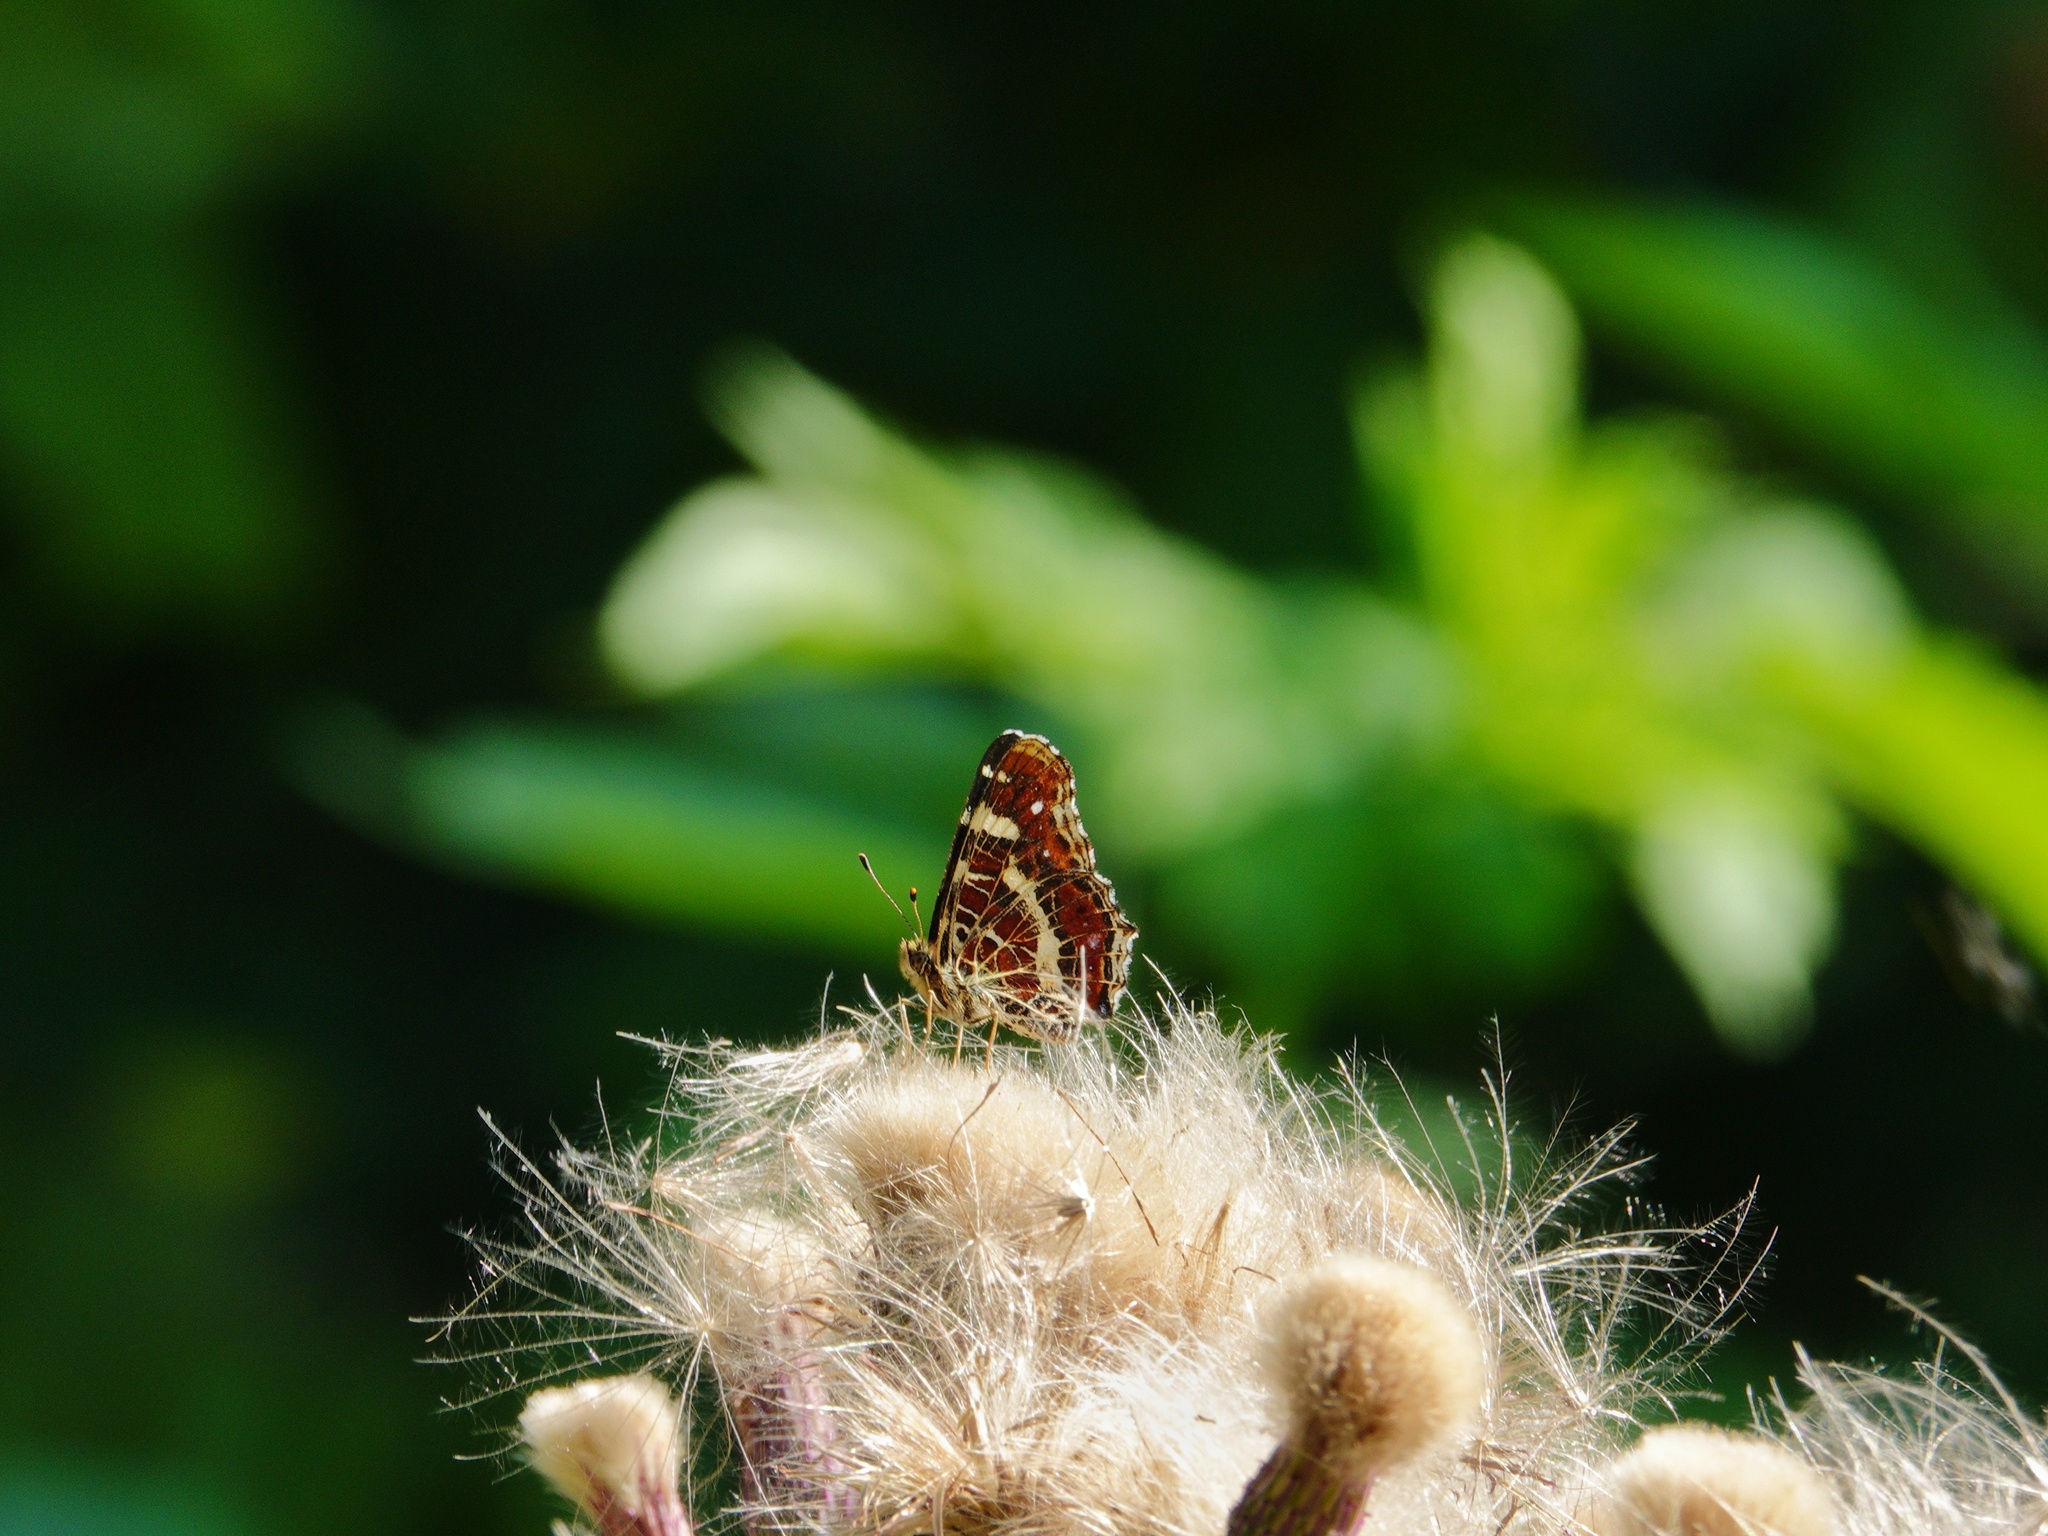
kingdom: Animalia
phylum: Arthropoda
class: Insecta
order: Lepidoptera
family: Nymphalidae
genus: Araschnia
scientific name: Araschnia levana
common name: Map butterfly
